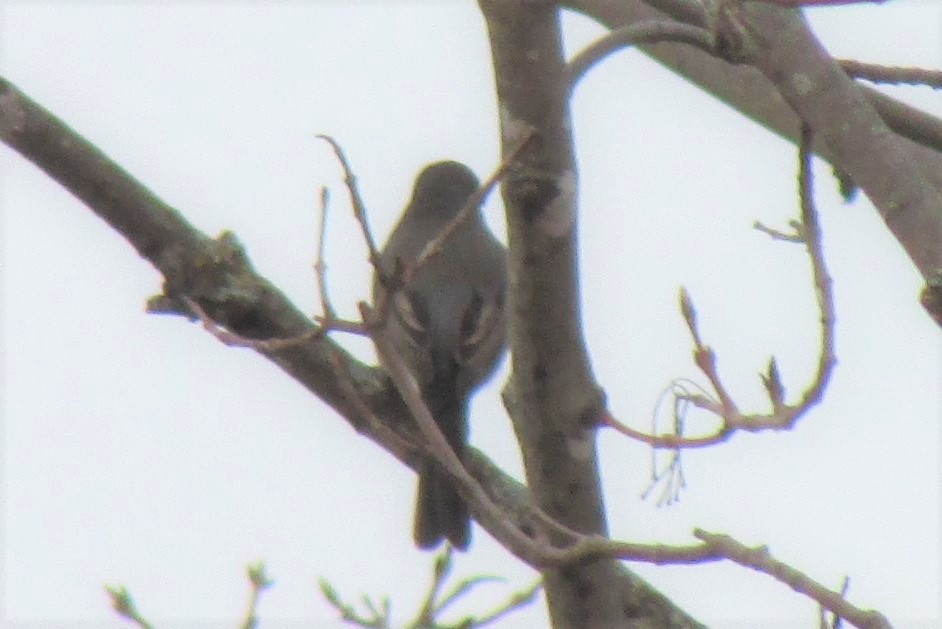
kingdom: Animalia
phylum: Chordata
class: Aves
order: Passeriformes
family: Tyrannidae
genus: Sayornis
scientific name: Sayornis phoebe
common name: Eastern phoebe
